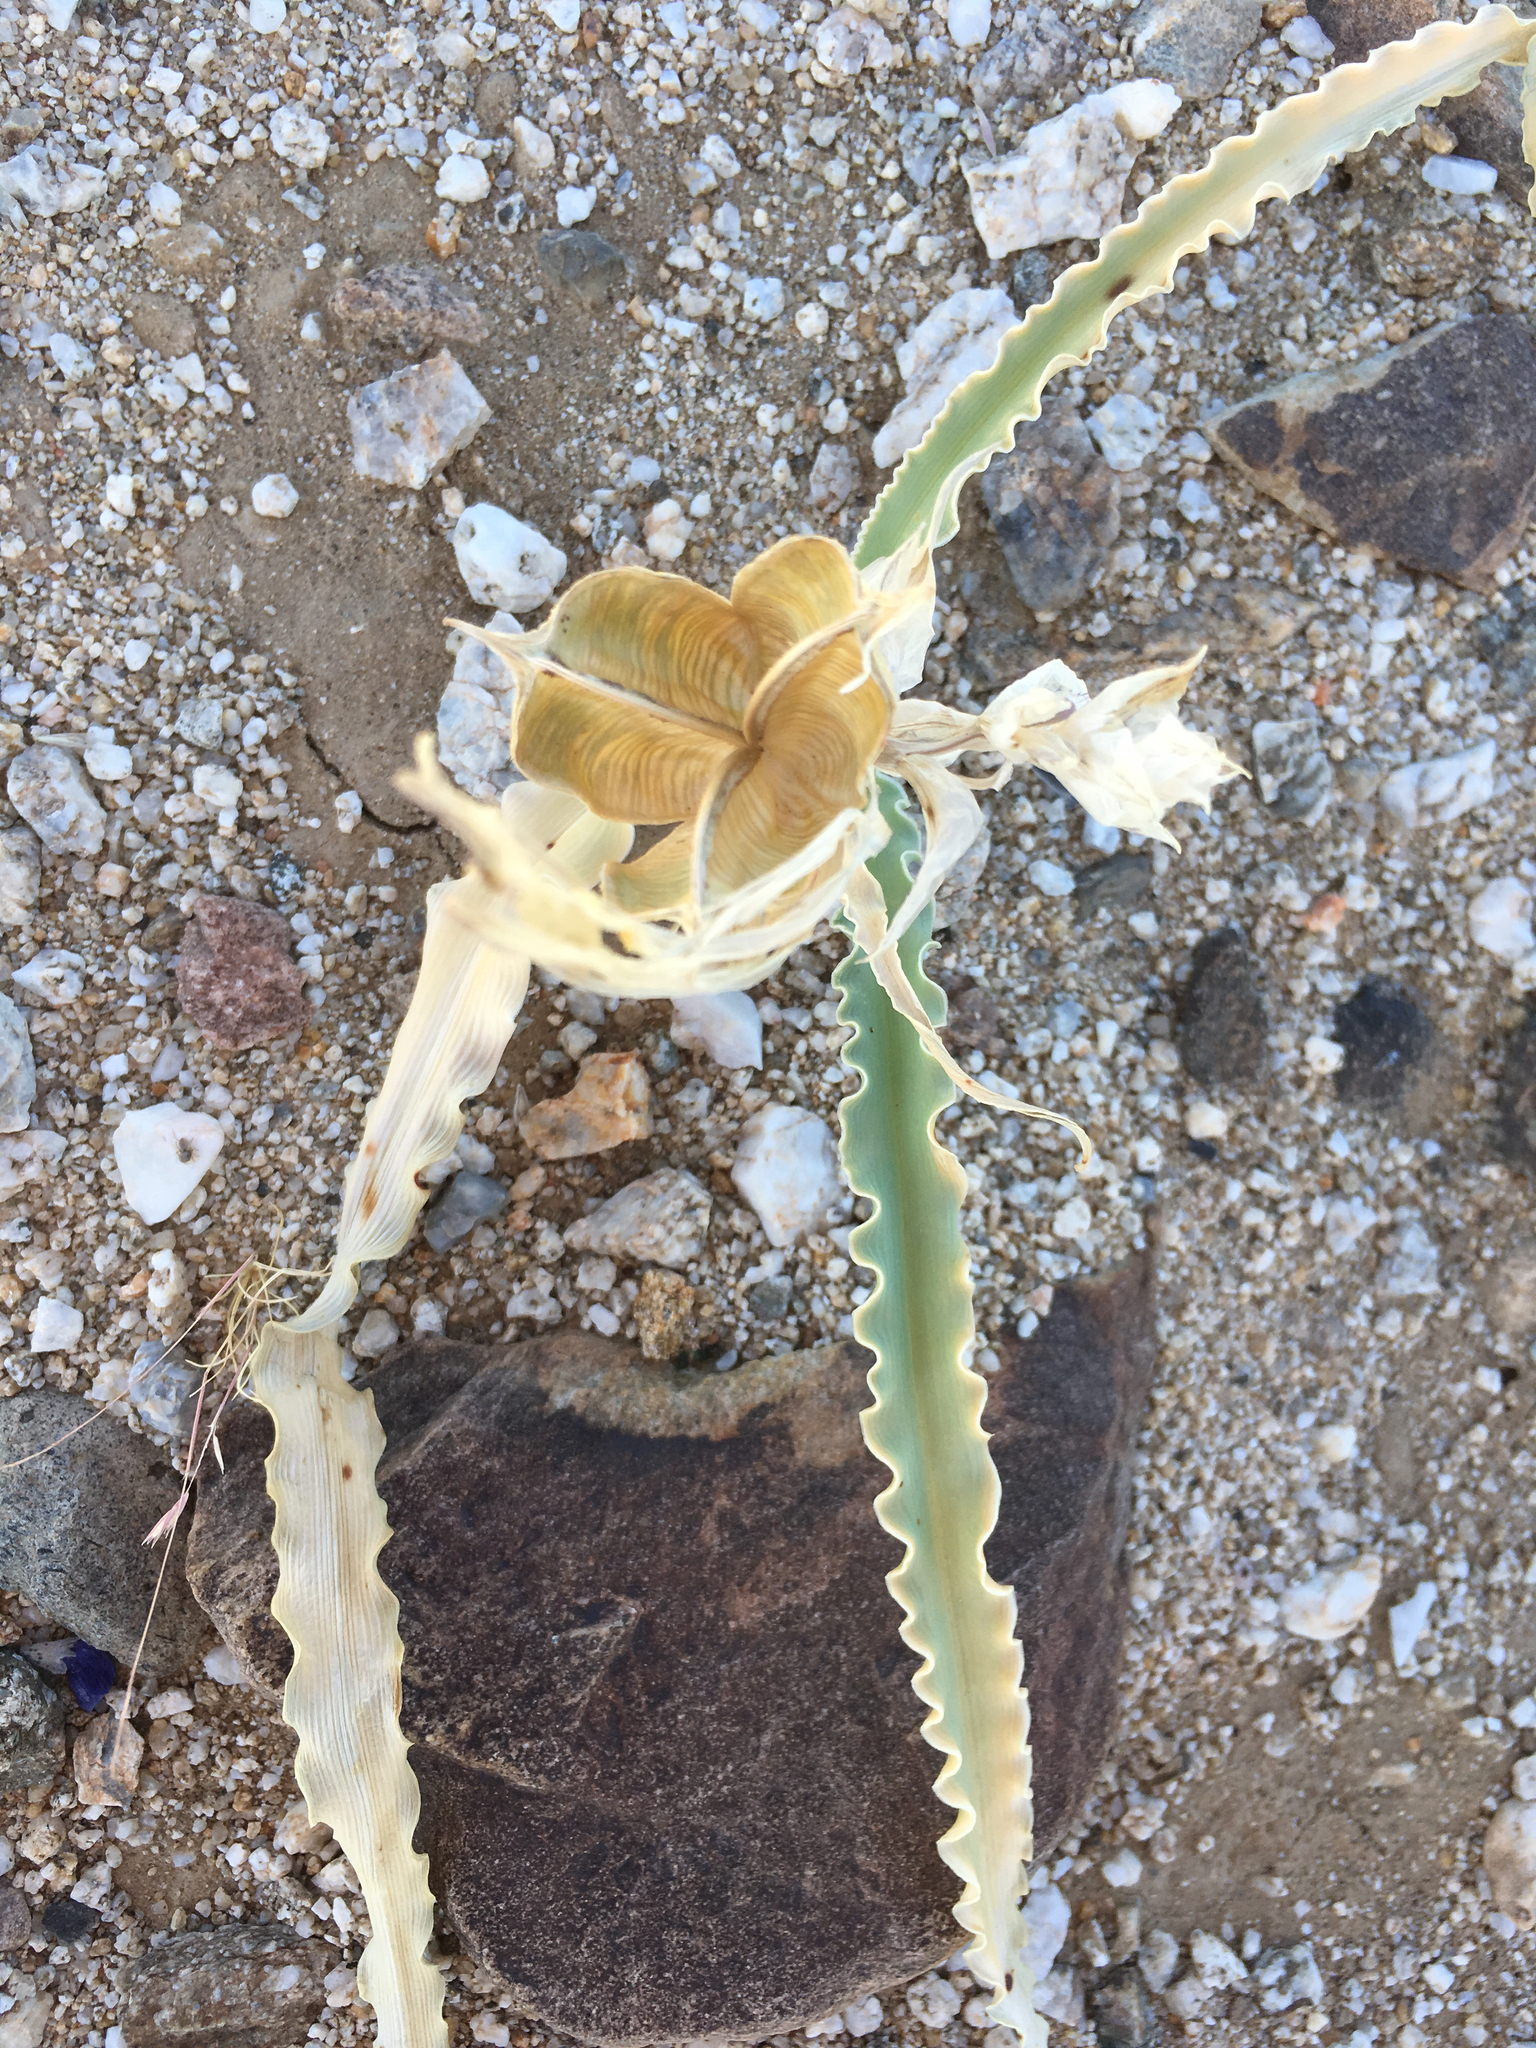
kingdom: Plantae
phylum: Tracheophyta
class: Liliopsida
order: Asparagales
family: Asparagaceae
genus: Hesperocallis
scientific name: Hesperocallis undulata
